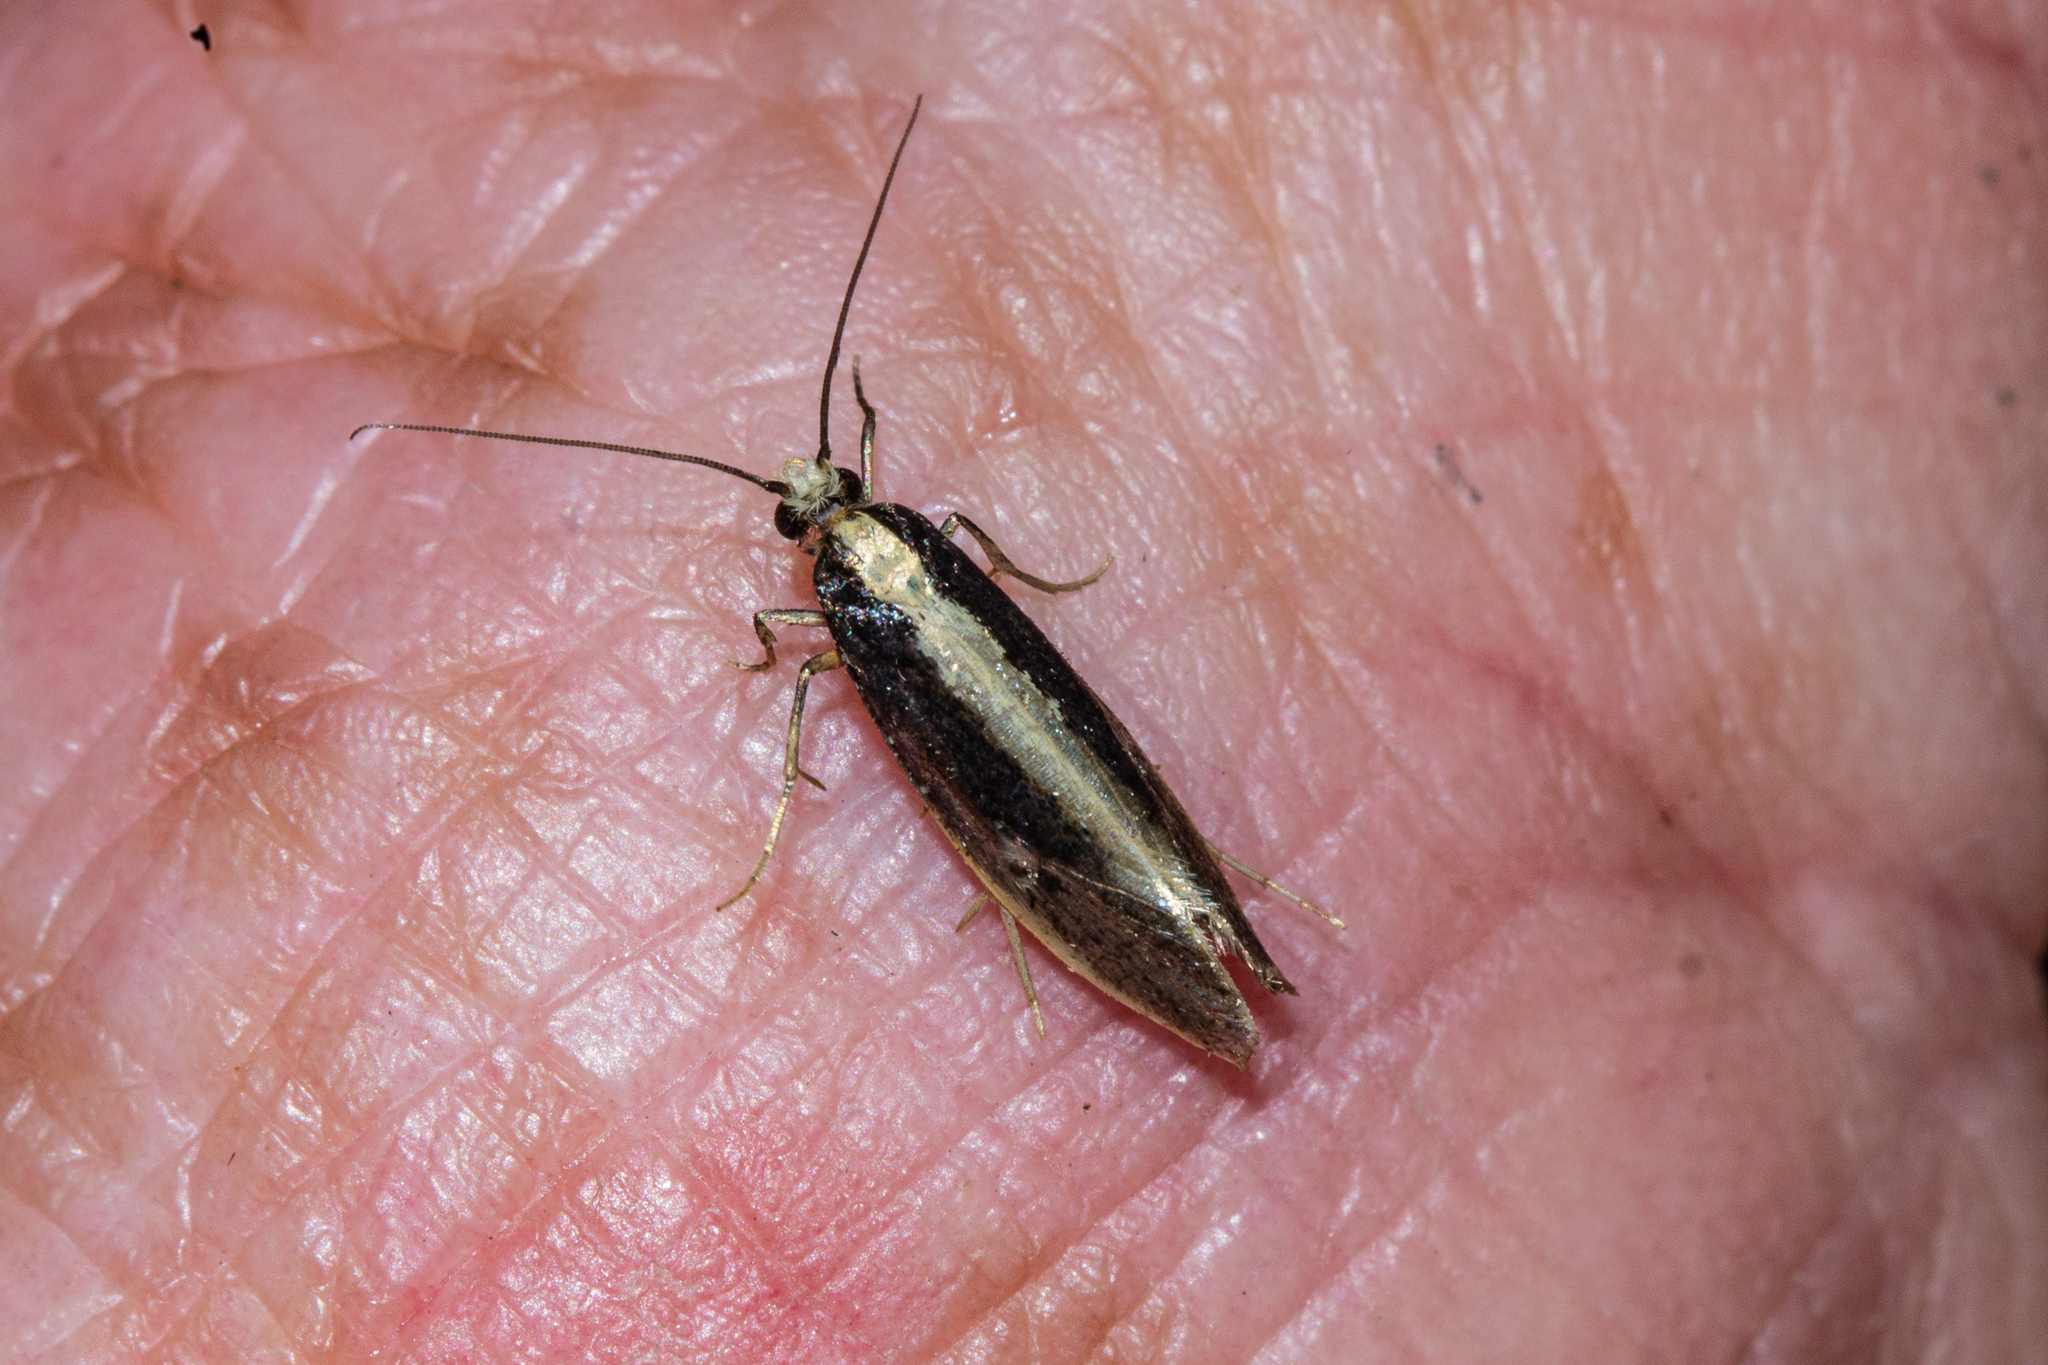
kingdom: Animalia
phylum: Arthropoda
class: Insecta
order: Lepidoptera
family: Tineidae
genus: Monopis
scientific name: Monopis ethelella
